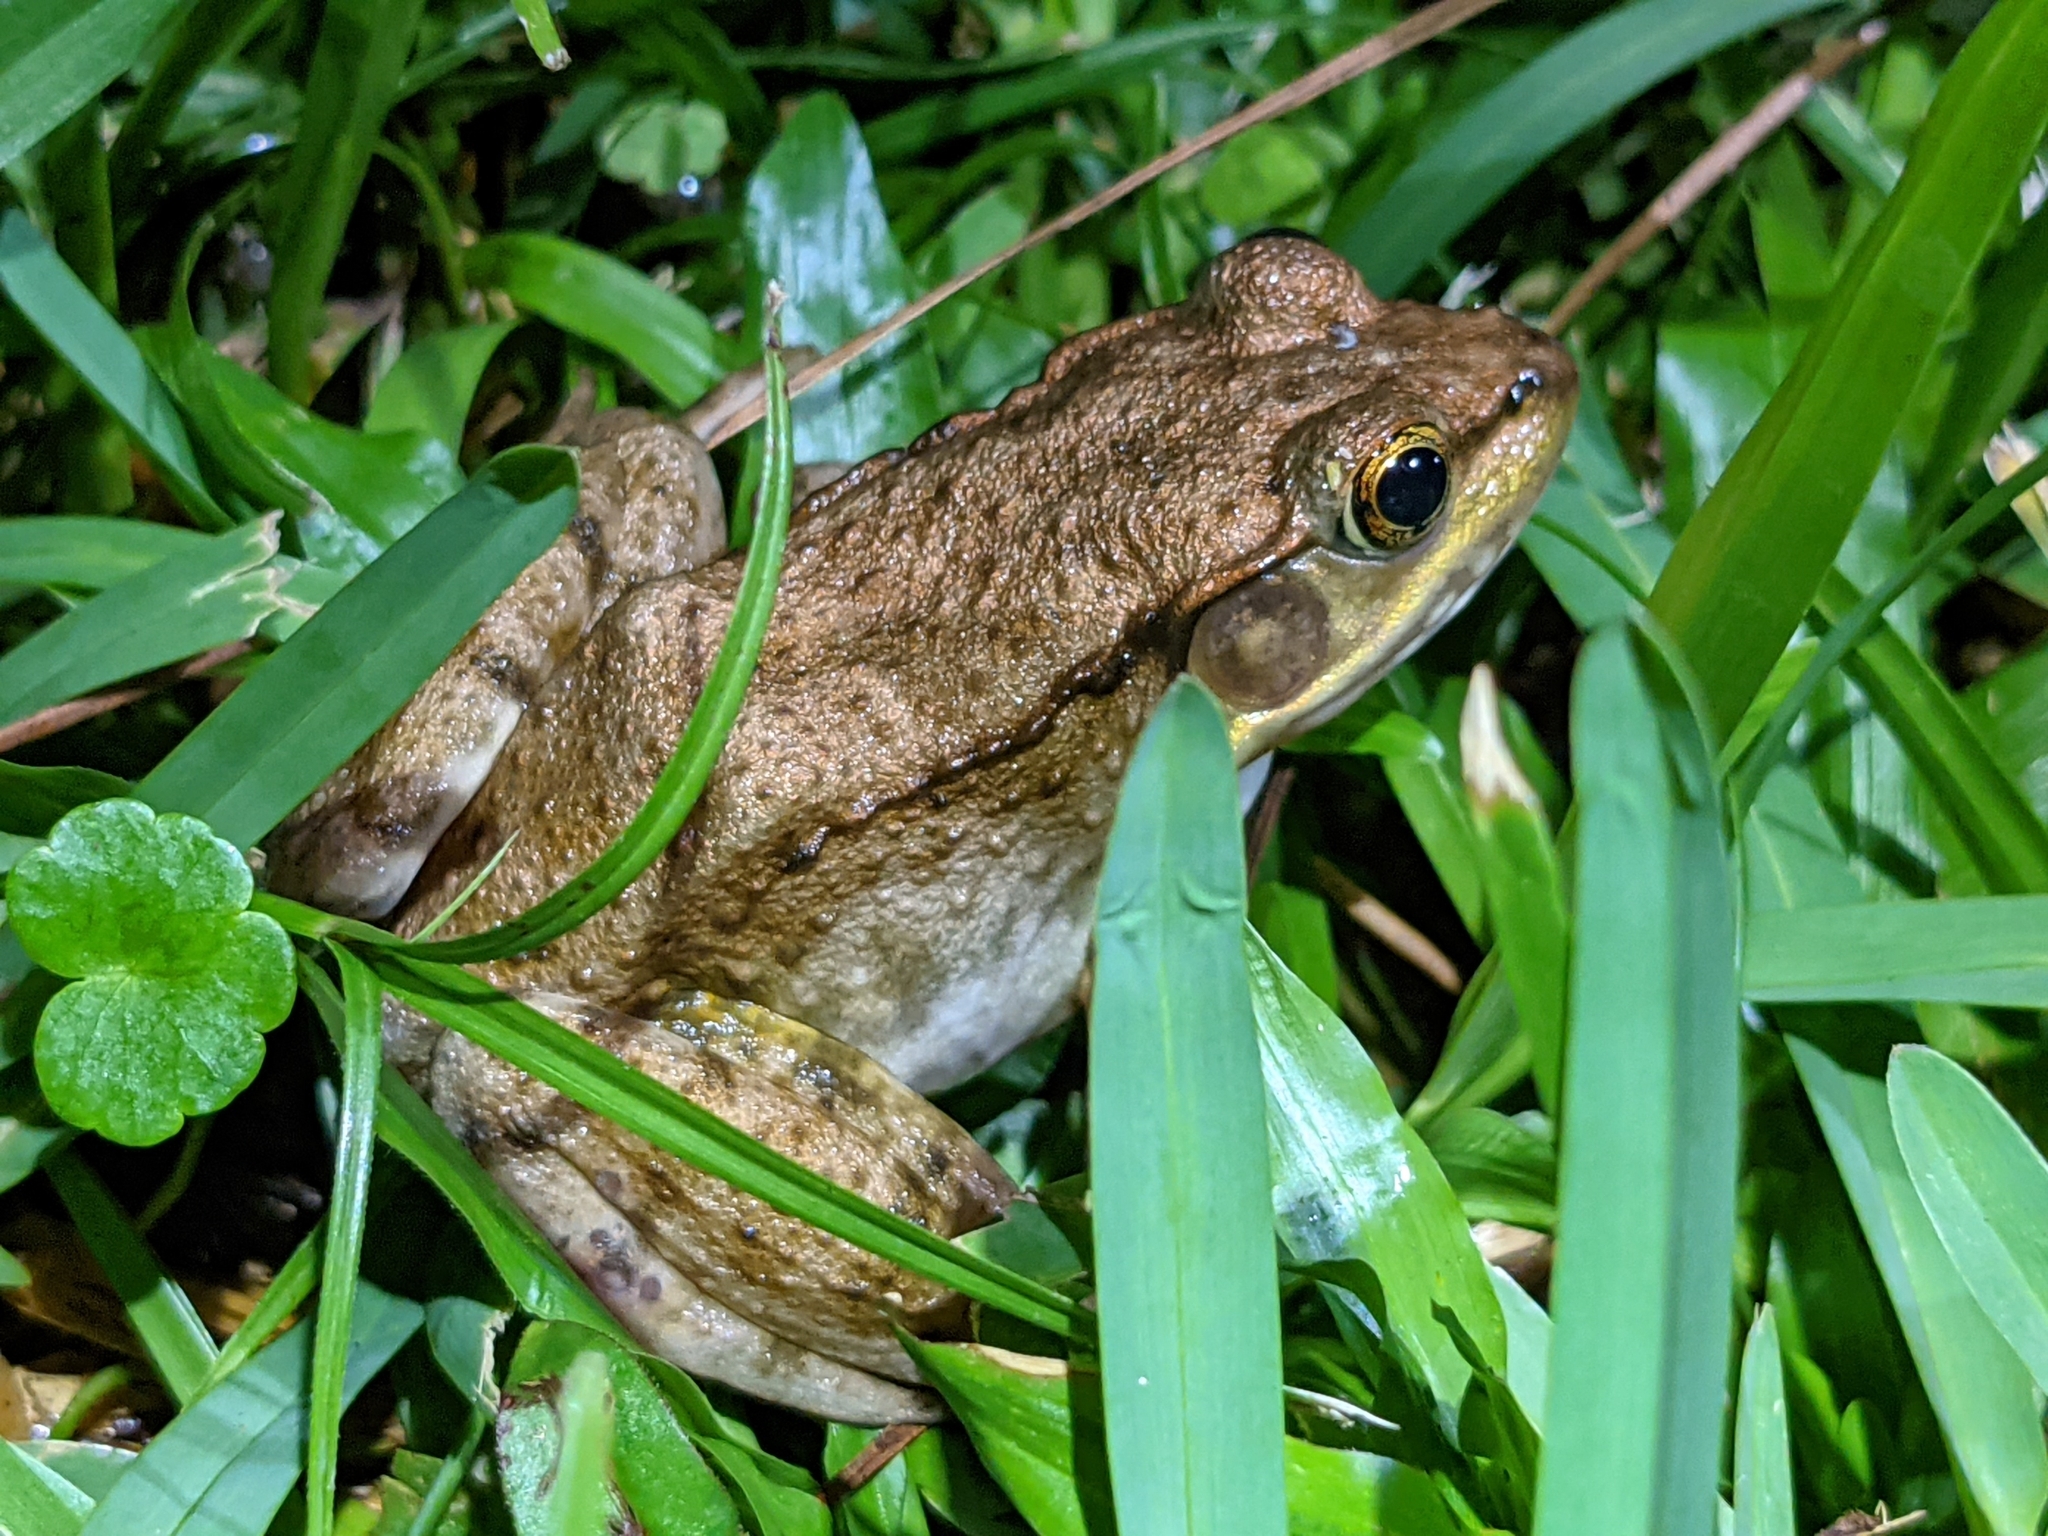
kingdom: Animalia
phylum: Chordata
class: Amphibia
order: Anura
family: Ranidae
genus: Lithobates
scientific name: Lithobates clamitans
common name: Green frog
